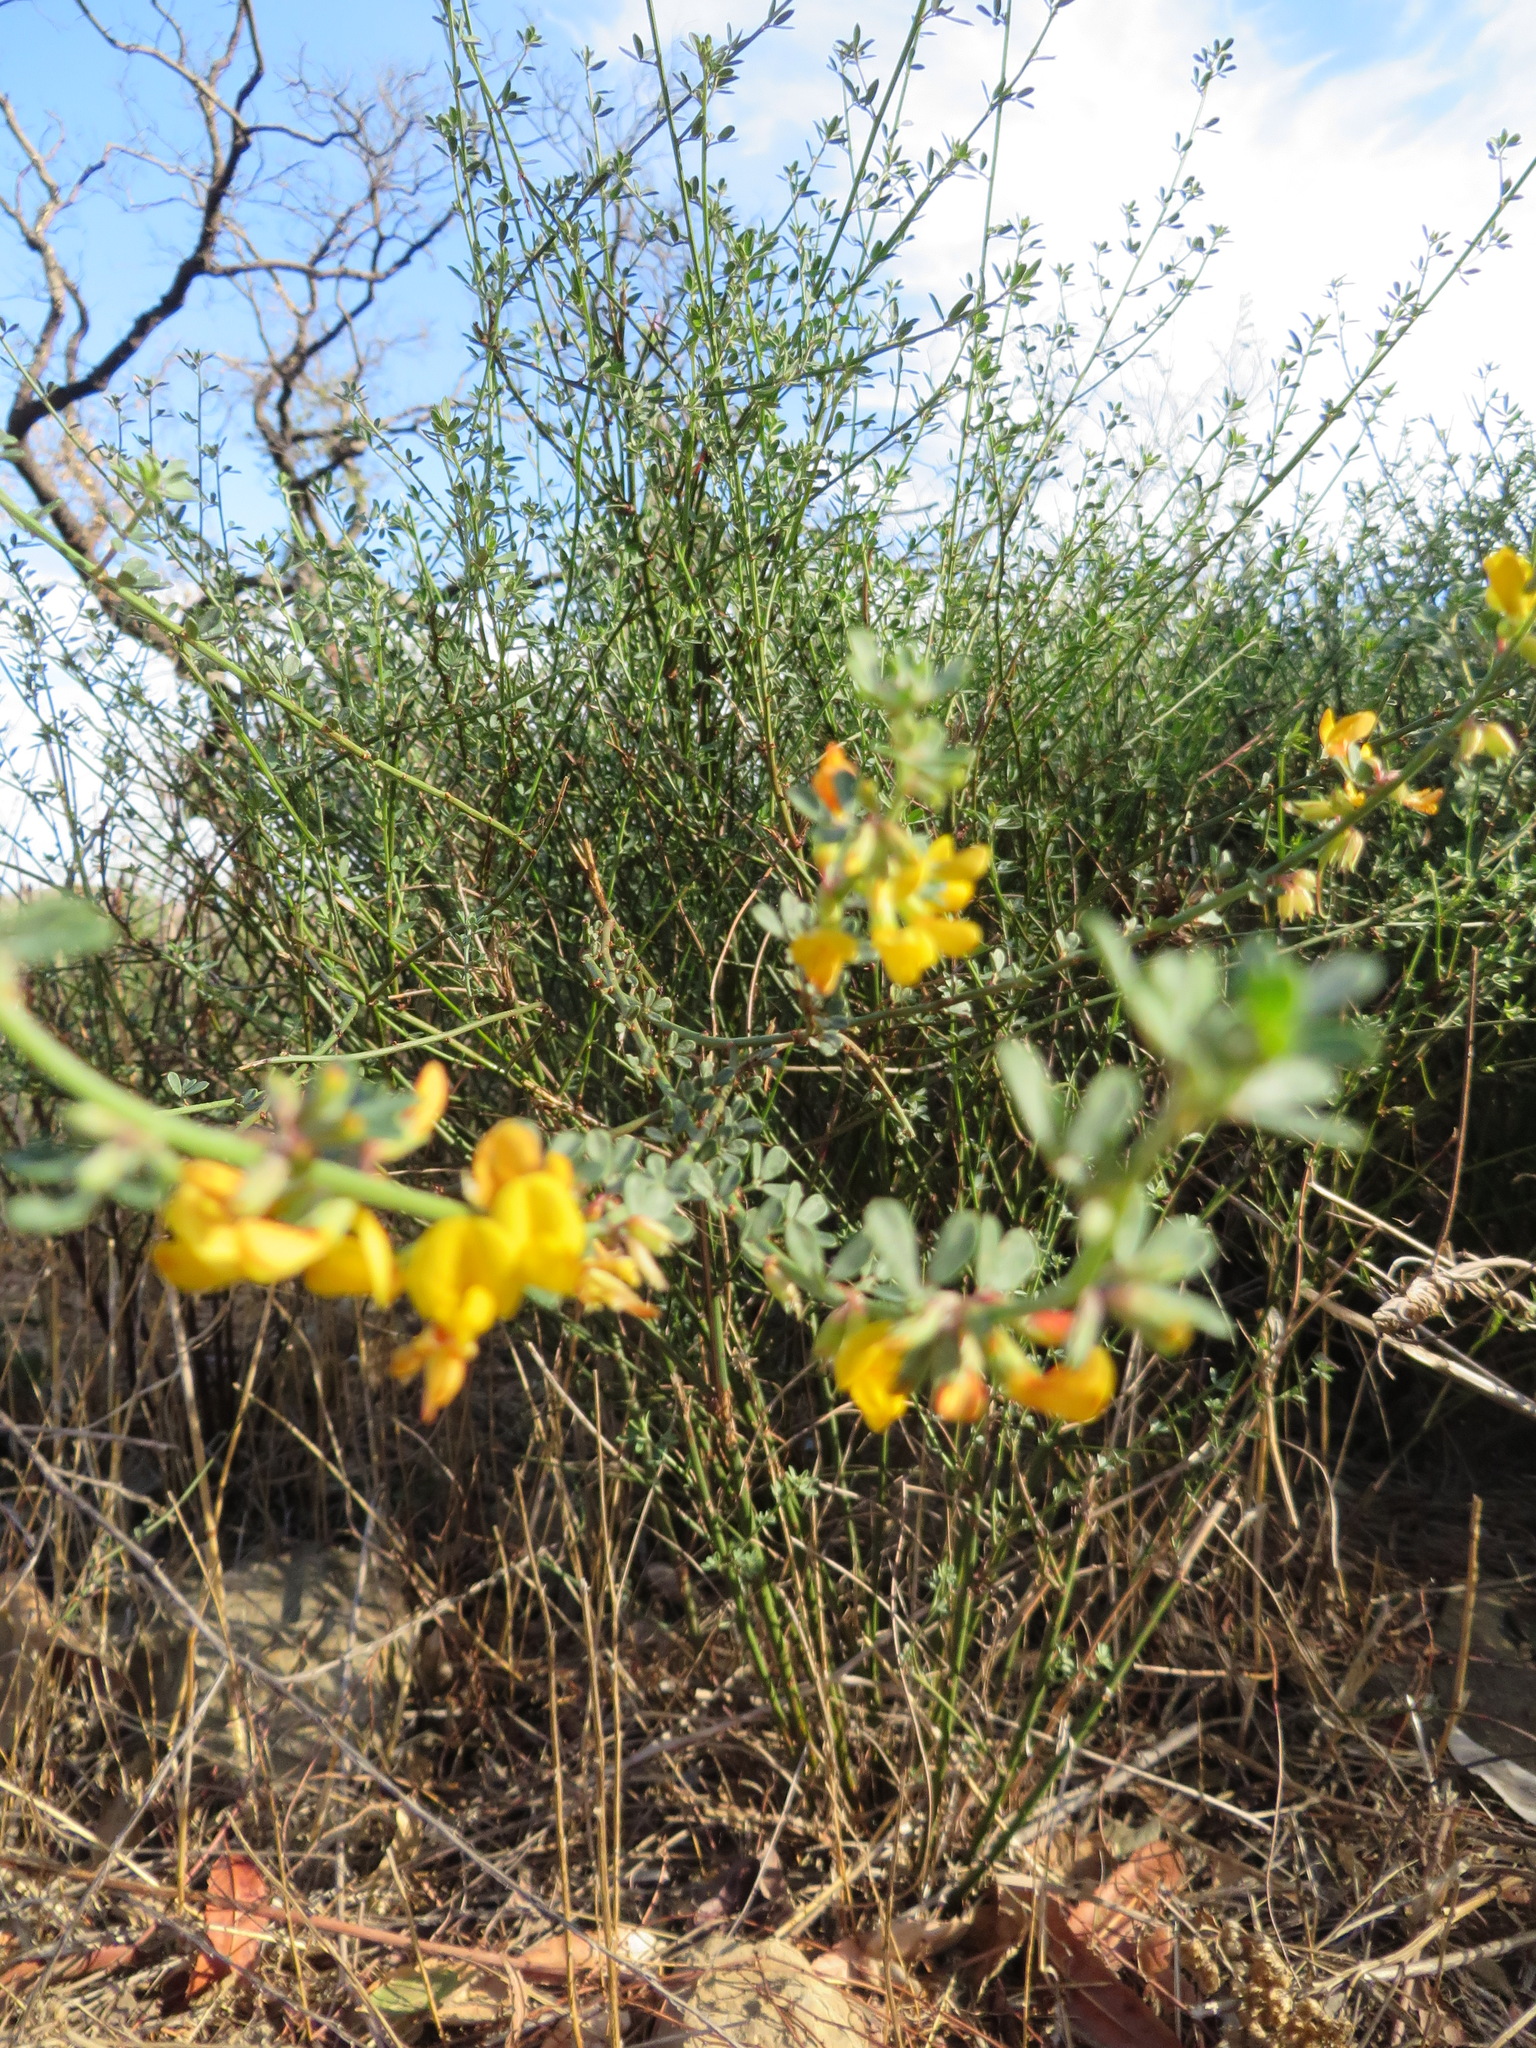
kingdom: Plantae
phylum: Tracheophyta
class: Magnoliopsida
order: Fabales
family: Fabaceae
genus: Acmispon
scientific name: Acmispon glaber
